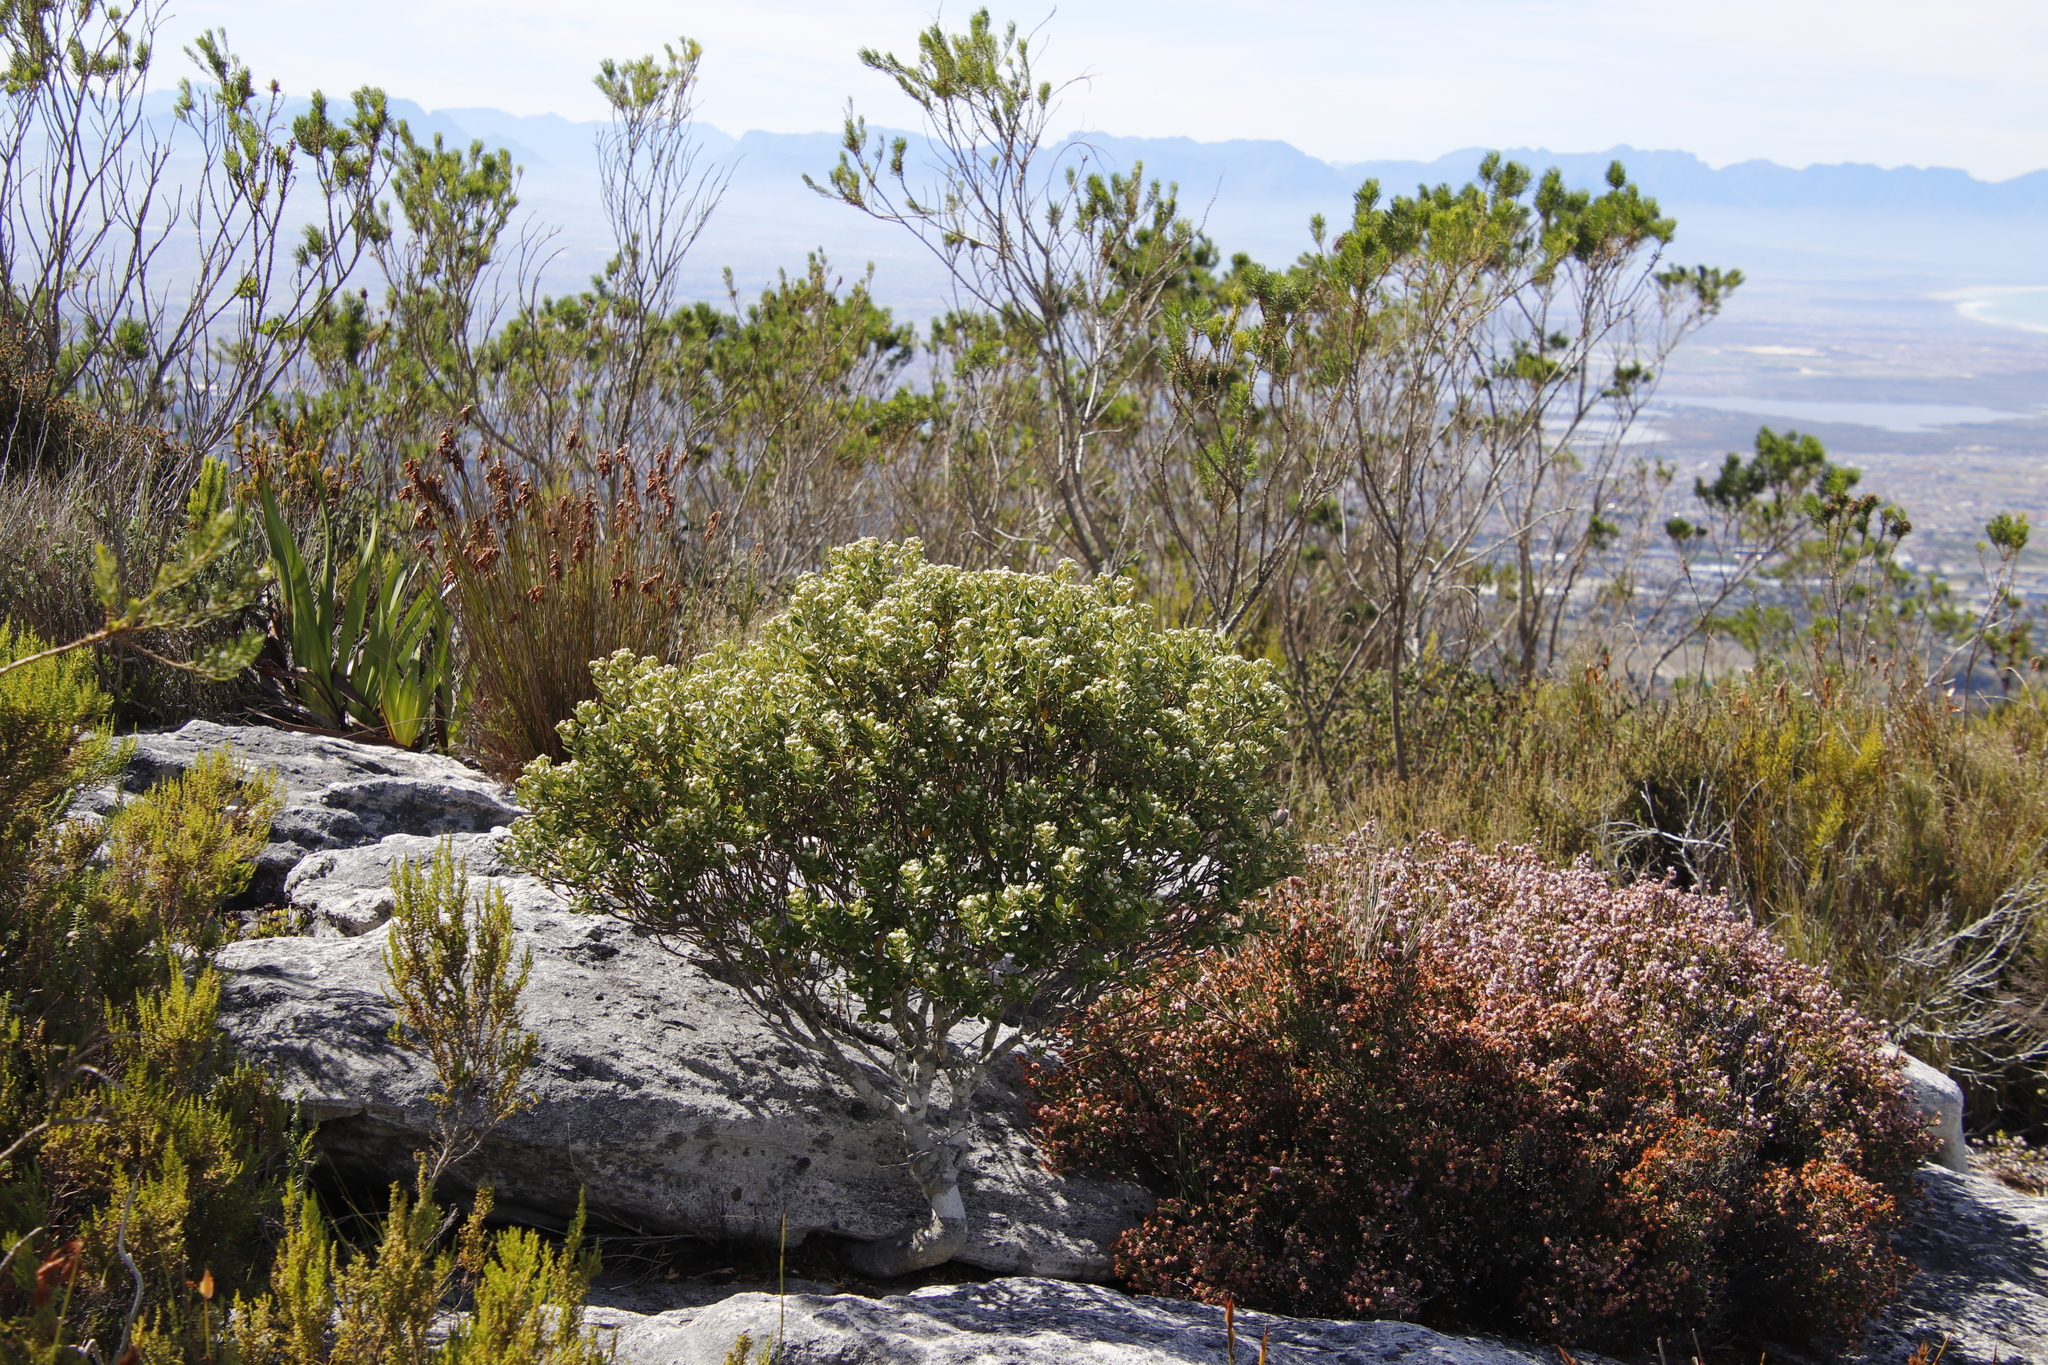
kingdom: Plantae
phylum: Tracheophyta
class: Magnoliopsida
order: Rosales
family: Rhamnaceae
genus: Phylica
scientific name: Phylica buxifolia
